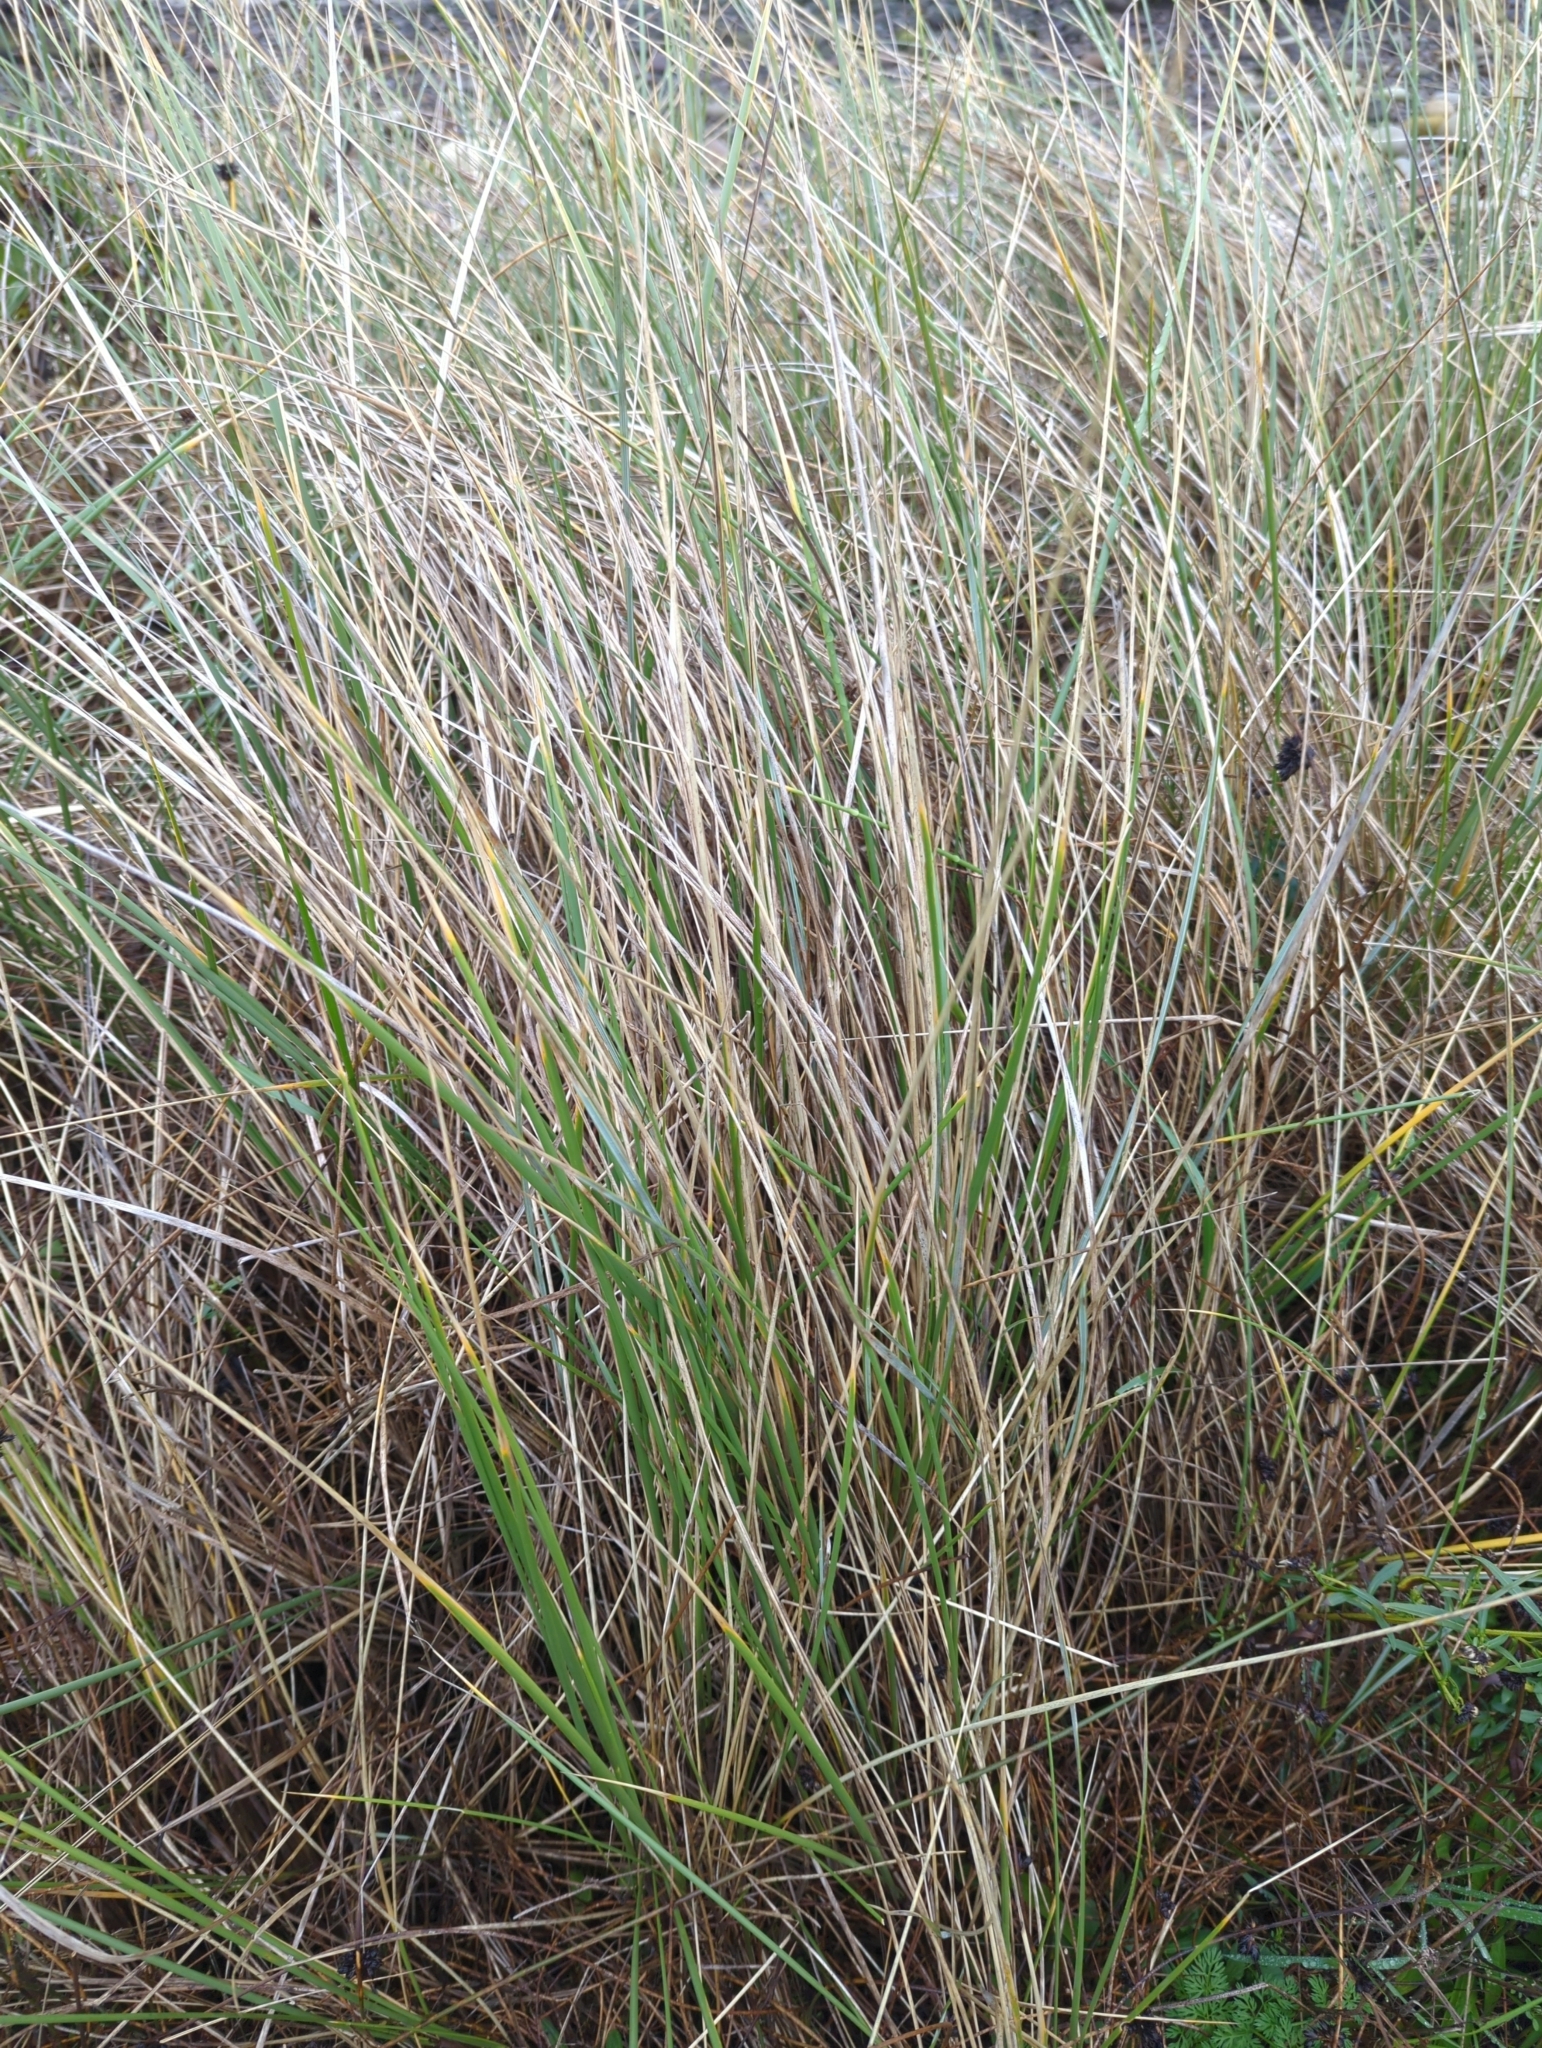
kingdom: Plantae
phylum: Tracheophyta
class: Liliopsida
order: Poales
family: Poaceae
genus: Calamagrostis
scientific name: Calamagrostis arenaria
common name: European beachgrass
